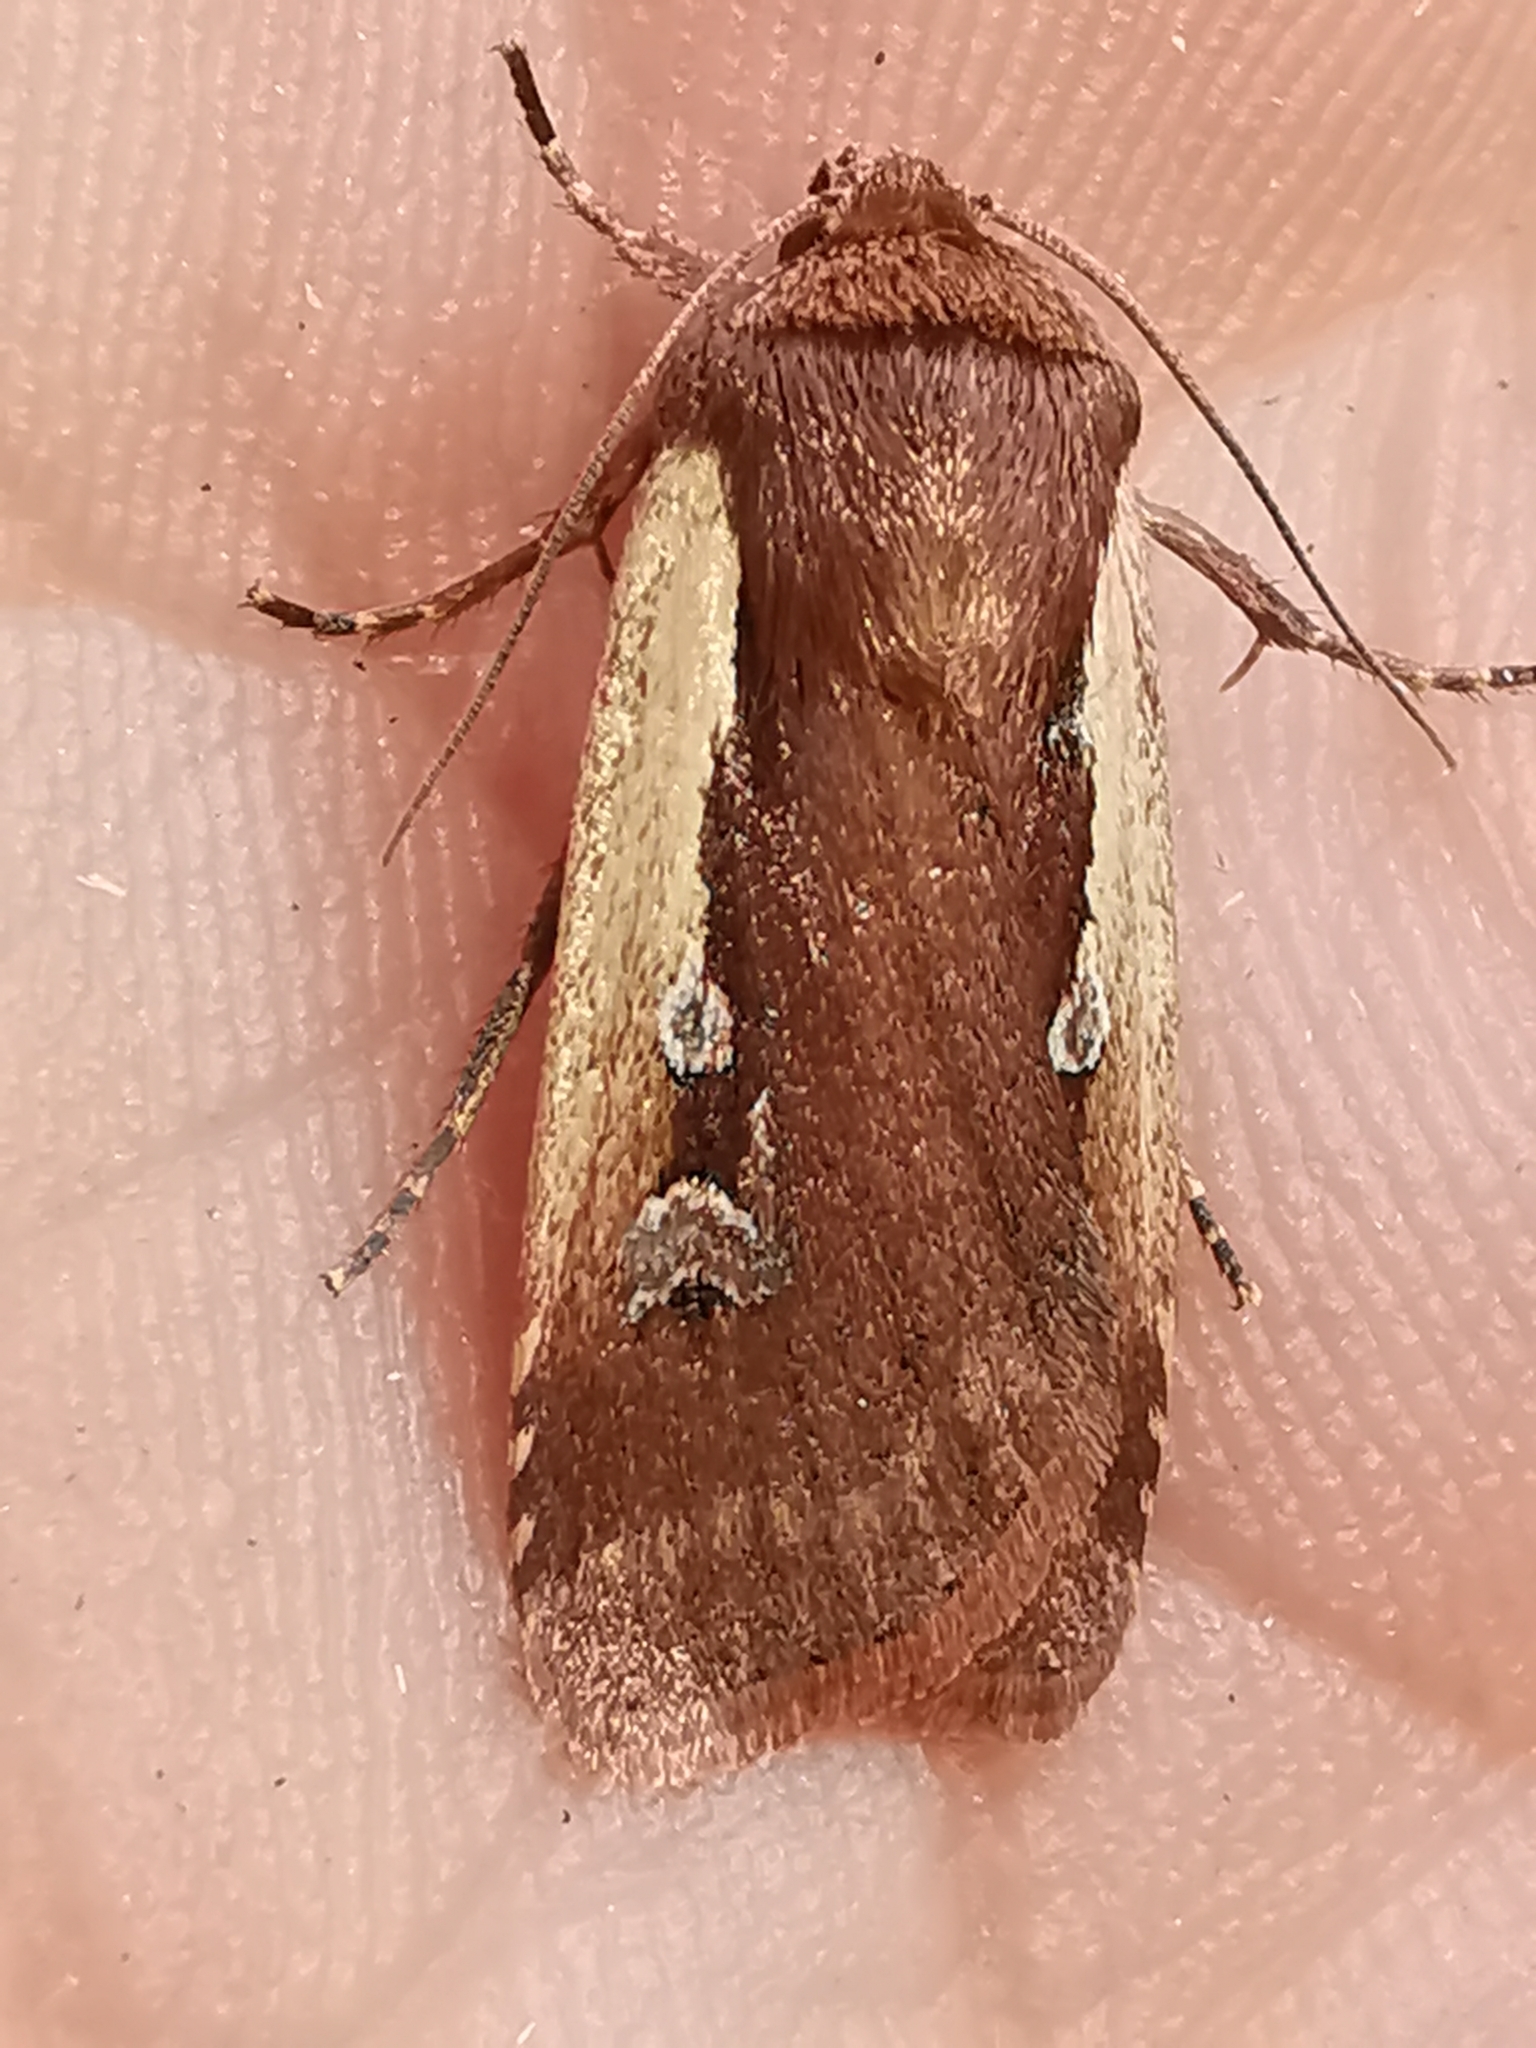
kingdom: Animalia
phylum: Arthropoda
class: Insecta
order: Lepidoptera
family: Noctuidae
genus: Ochropleura
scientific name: Ochropleura plecta
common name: Flame shoulder
